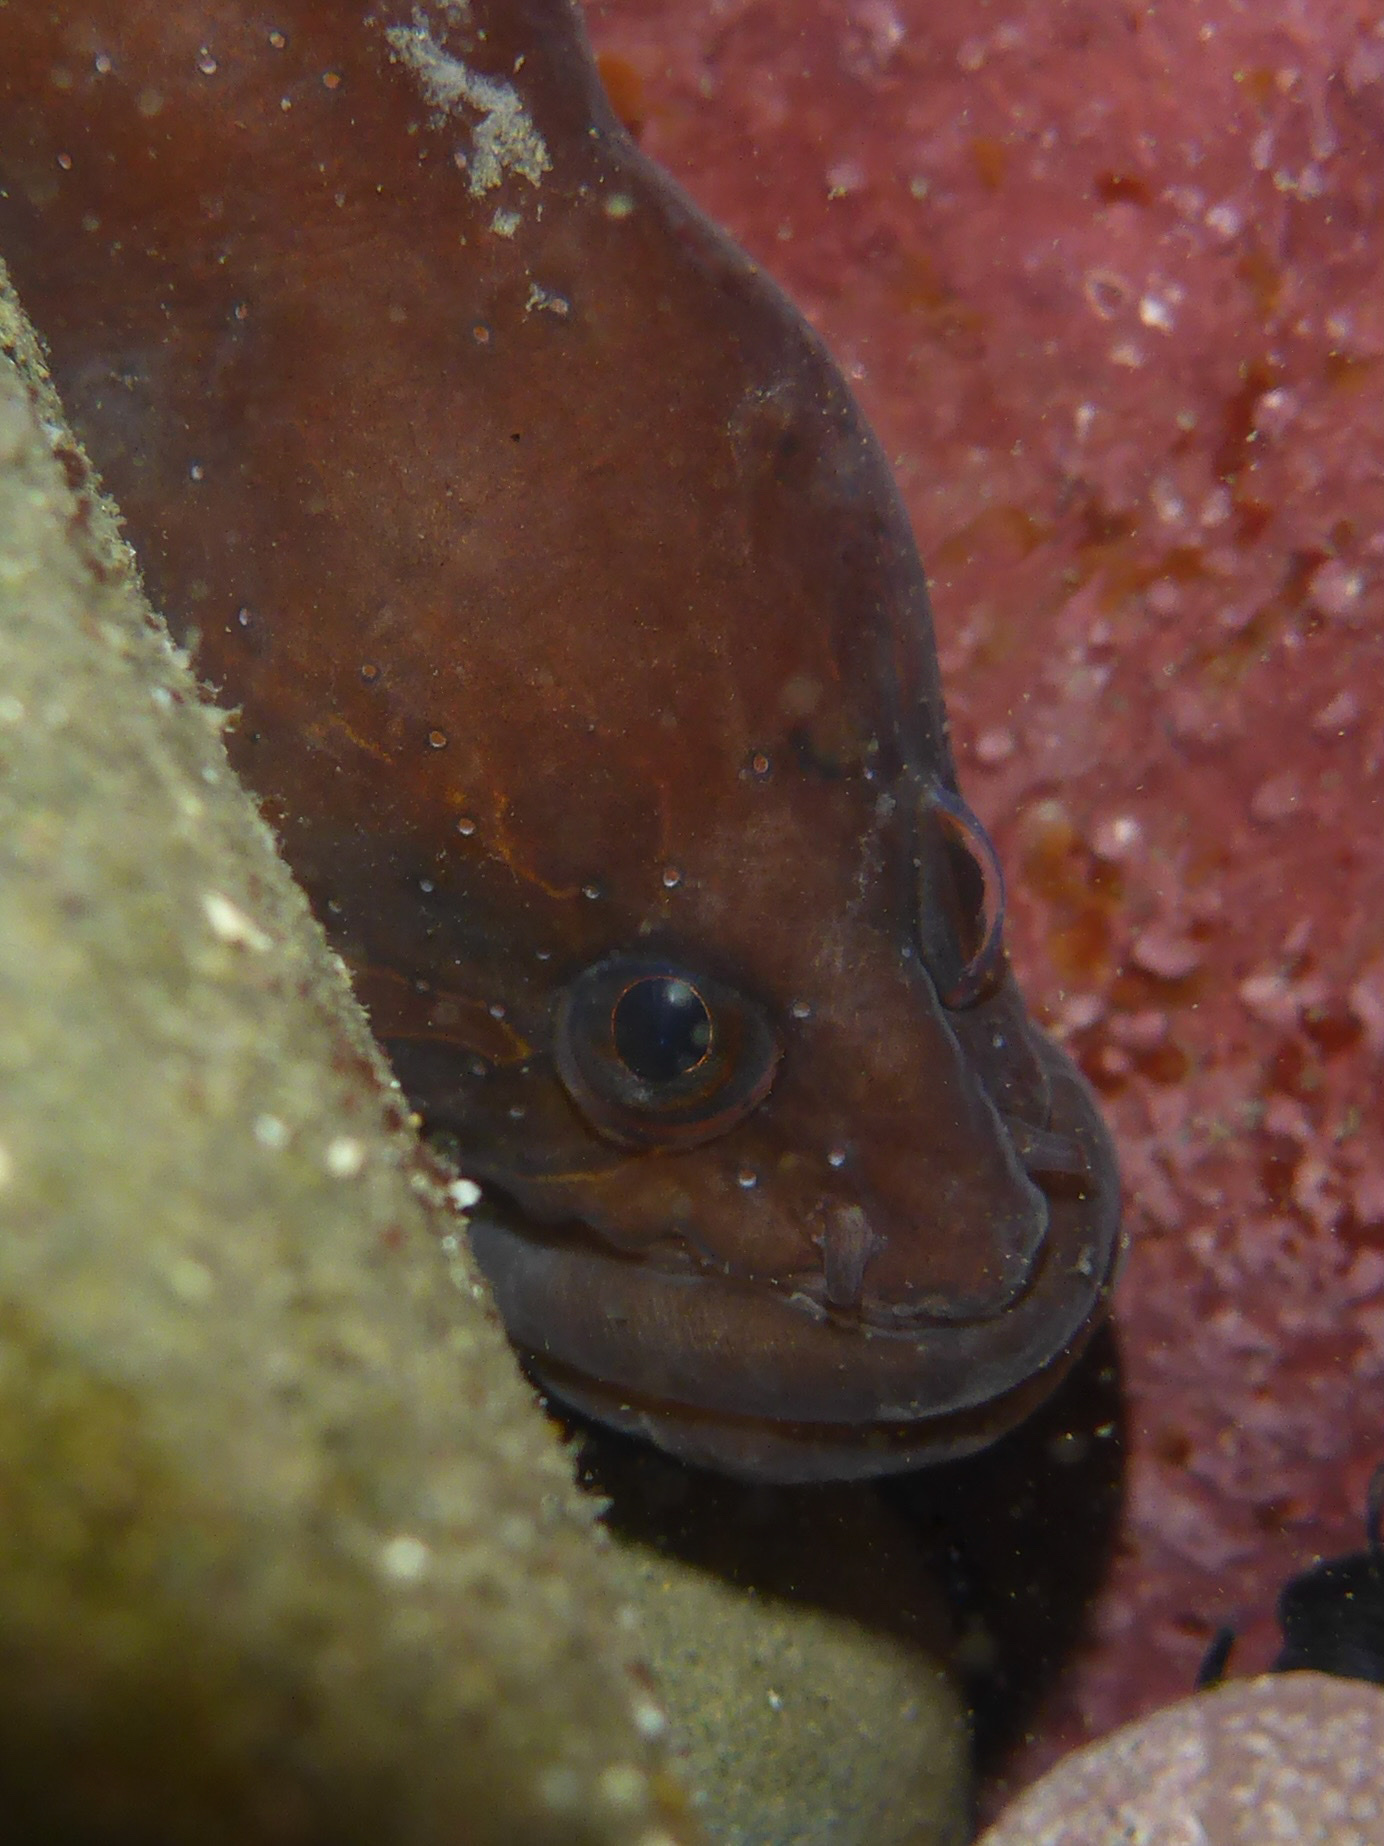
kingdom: Animalia
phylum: Chordata
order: Perciformes
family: Stichaeidae
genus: Xiphister
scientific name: Xiphister atropurpureus
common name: Black prickleback
